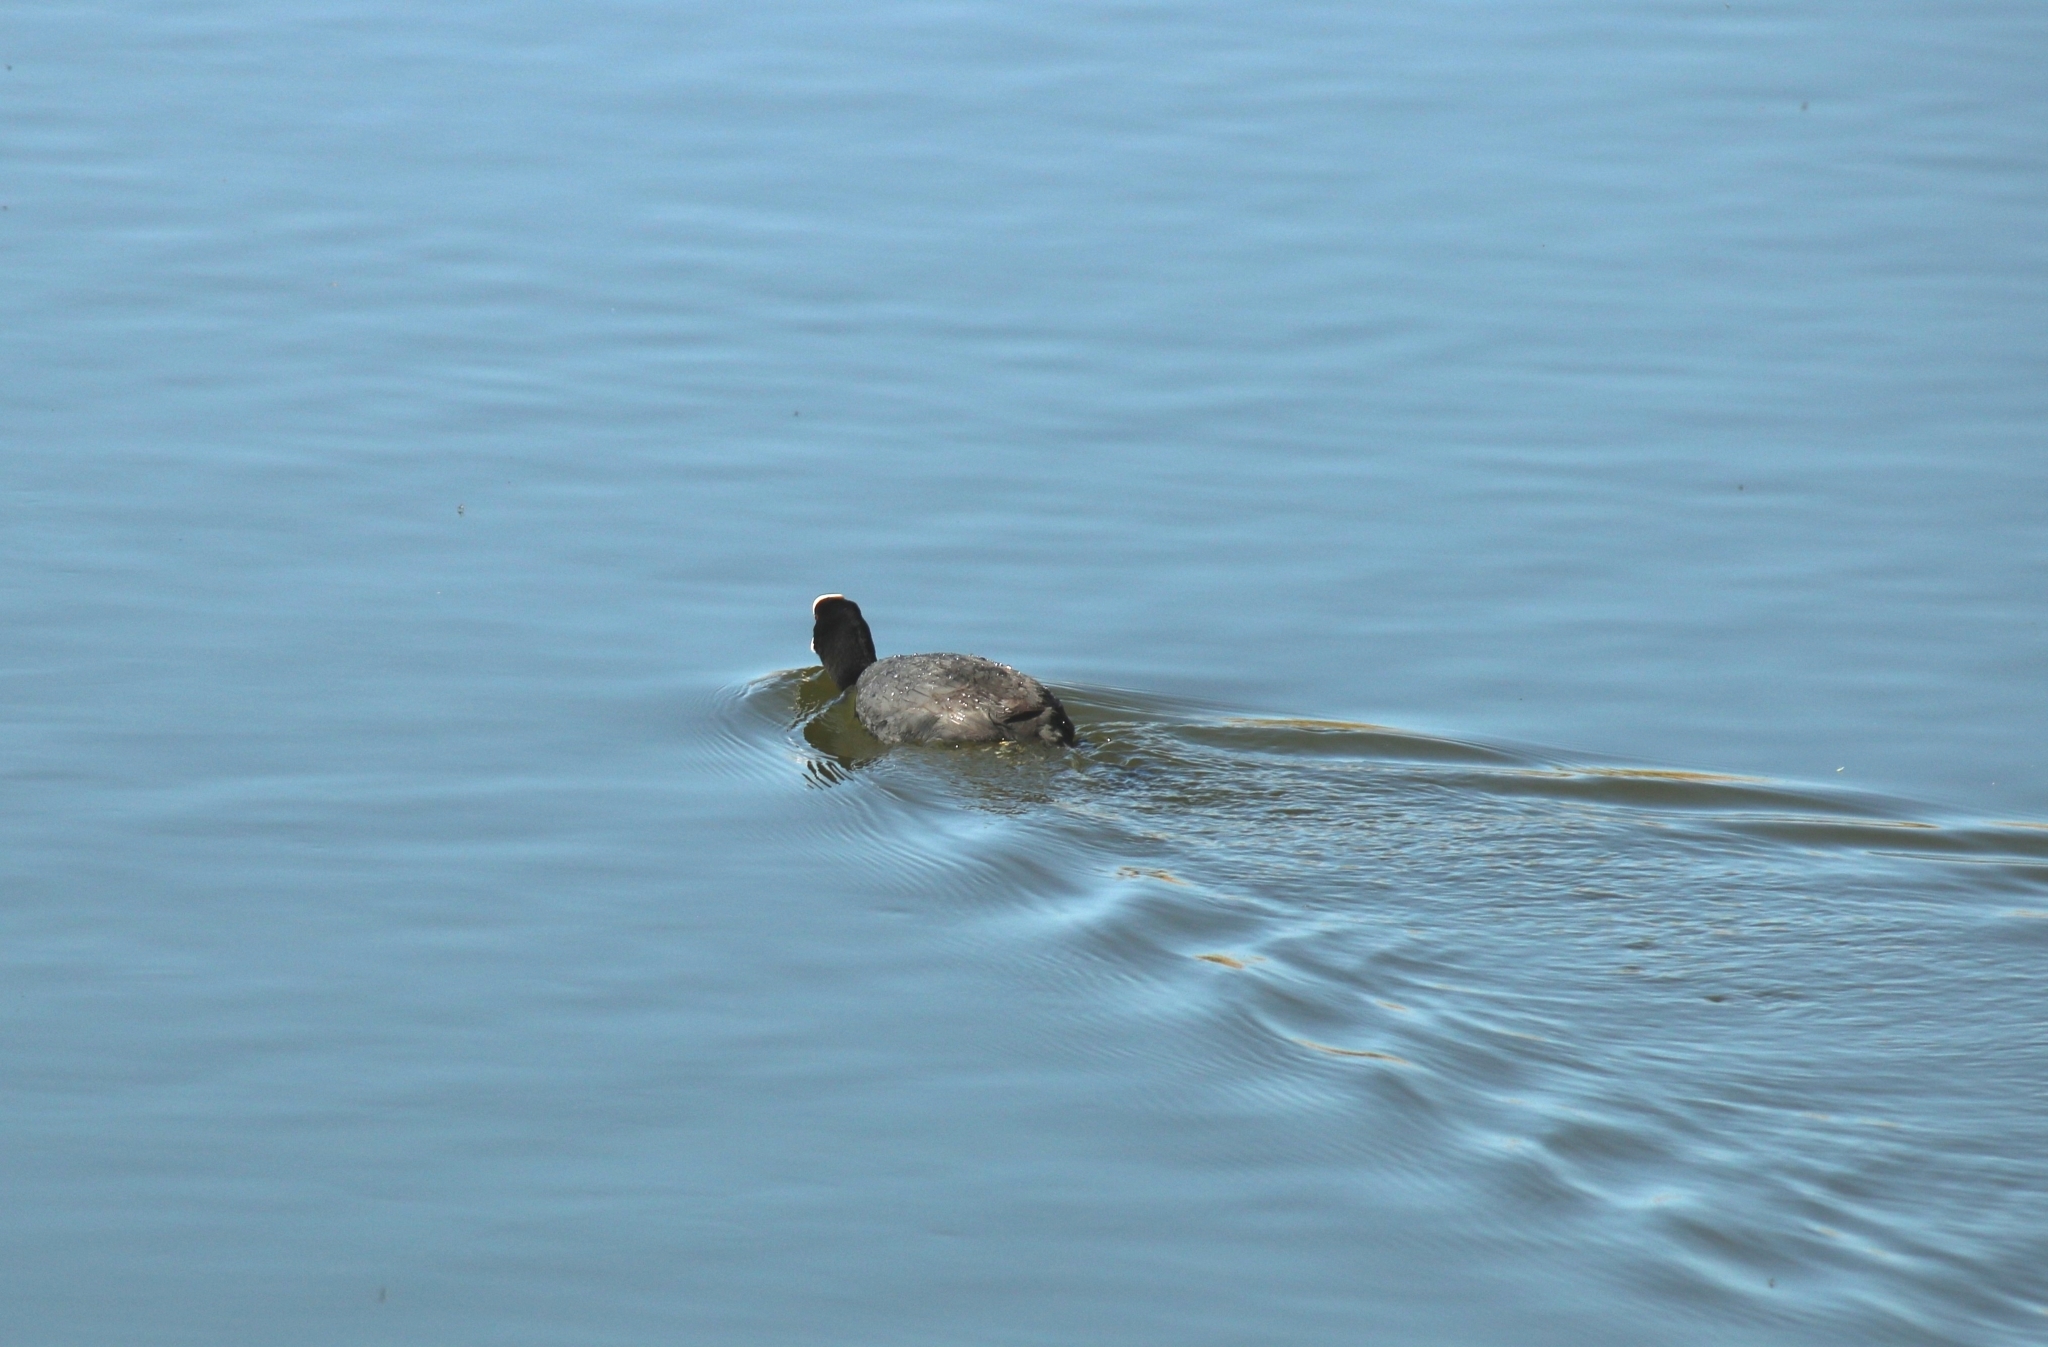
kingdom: Animalia
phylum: Chordata
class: Aves
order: Gruiformes
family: Rallidae
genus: Fulica
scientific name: Fulica atra
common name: Eurasian coot
